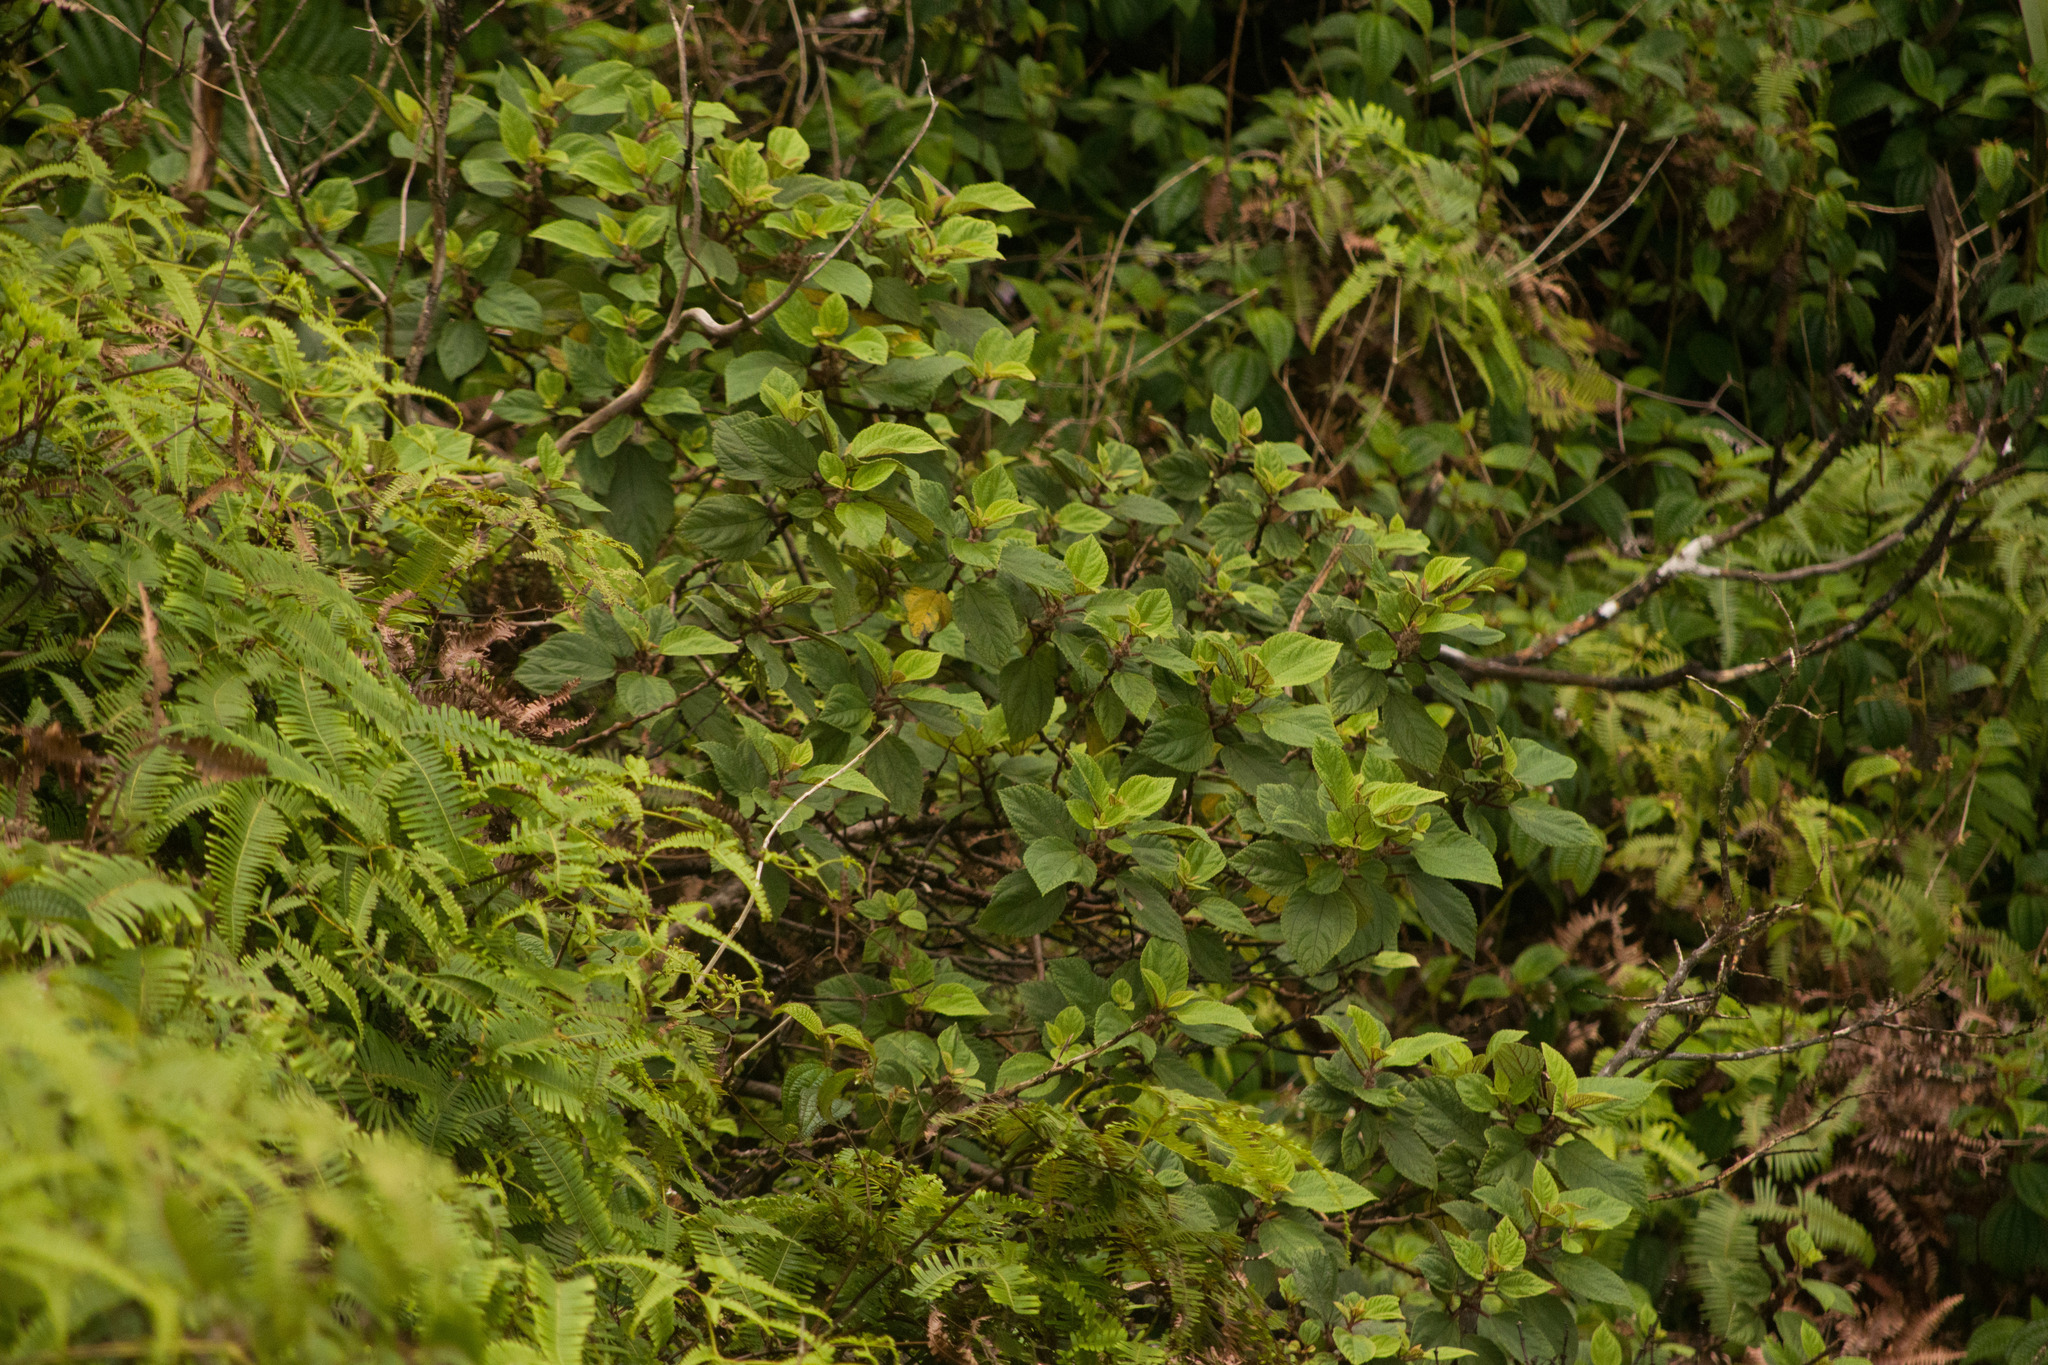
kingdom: Plantae
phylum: Tracheophyta
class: Magnoliopsida
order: Rosales
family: Urticaceae
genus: Pipturus
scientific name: Pipturus albidus
